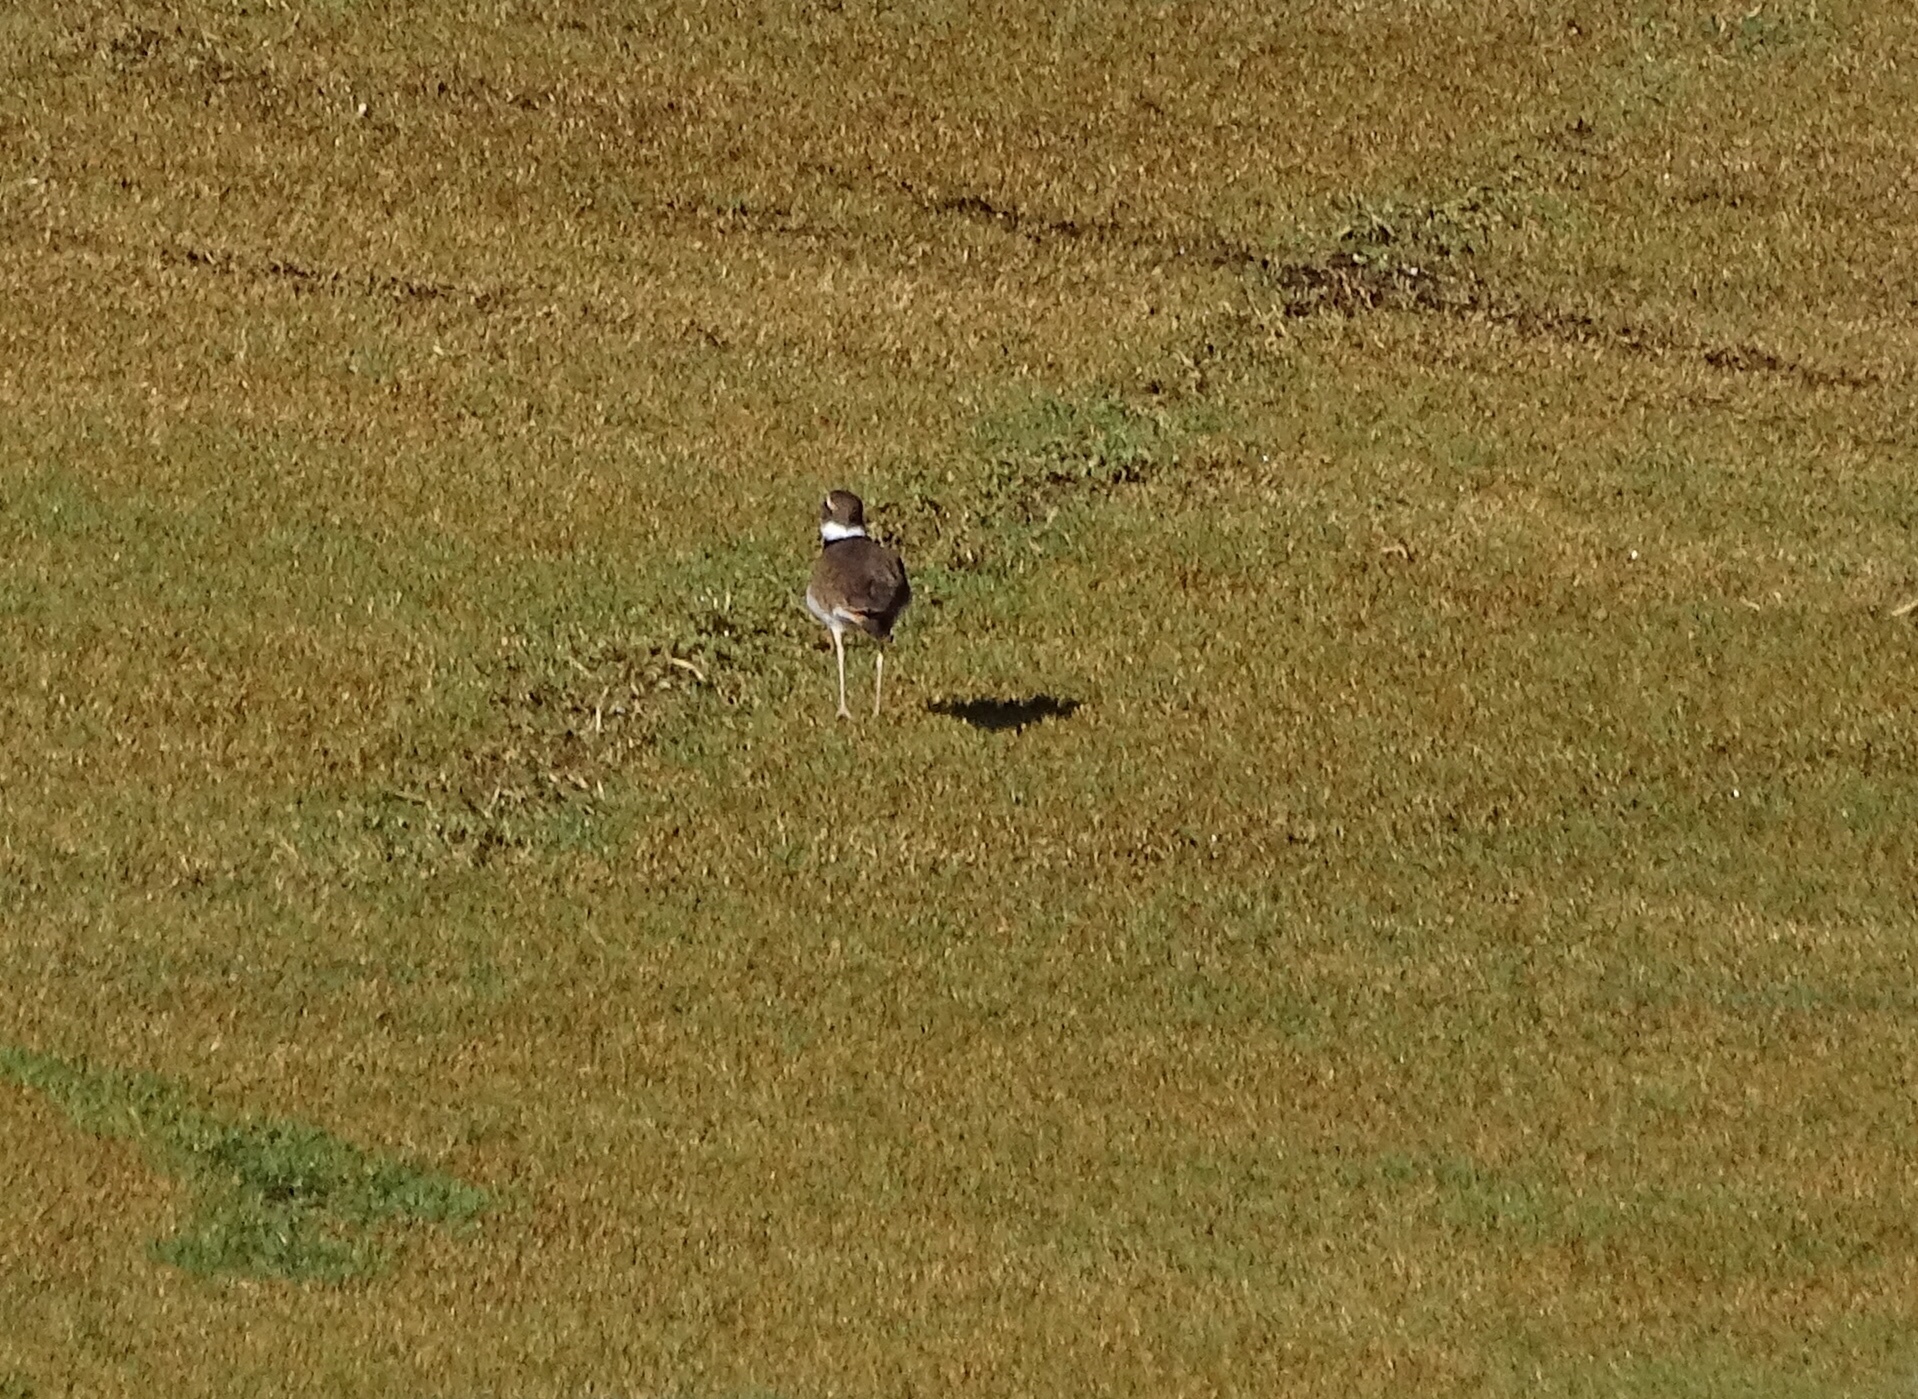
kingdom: Animalia
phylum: Chordata
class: Aves
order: Charadriiformes
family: Charadriidae
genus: Charadrius
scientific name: Charadrius vociferus
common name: Killdeer
